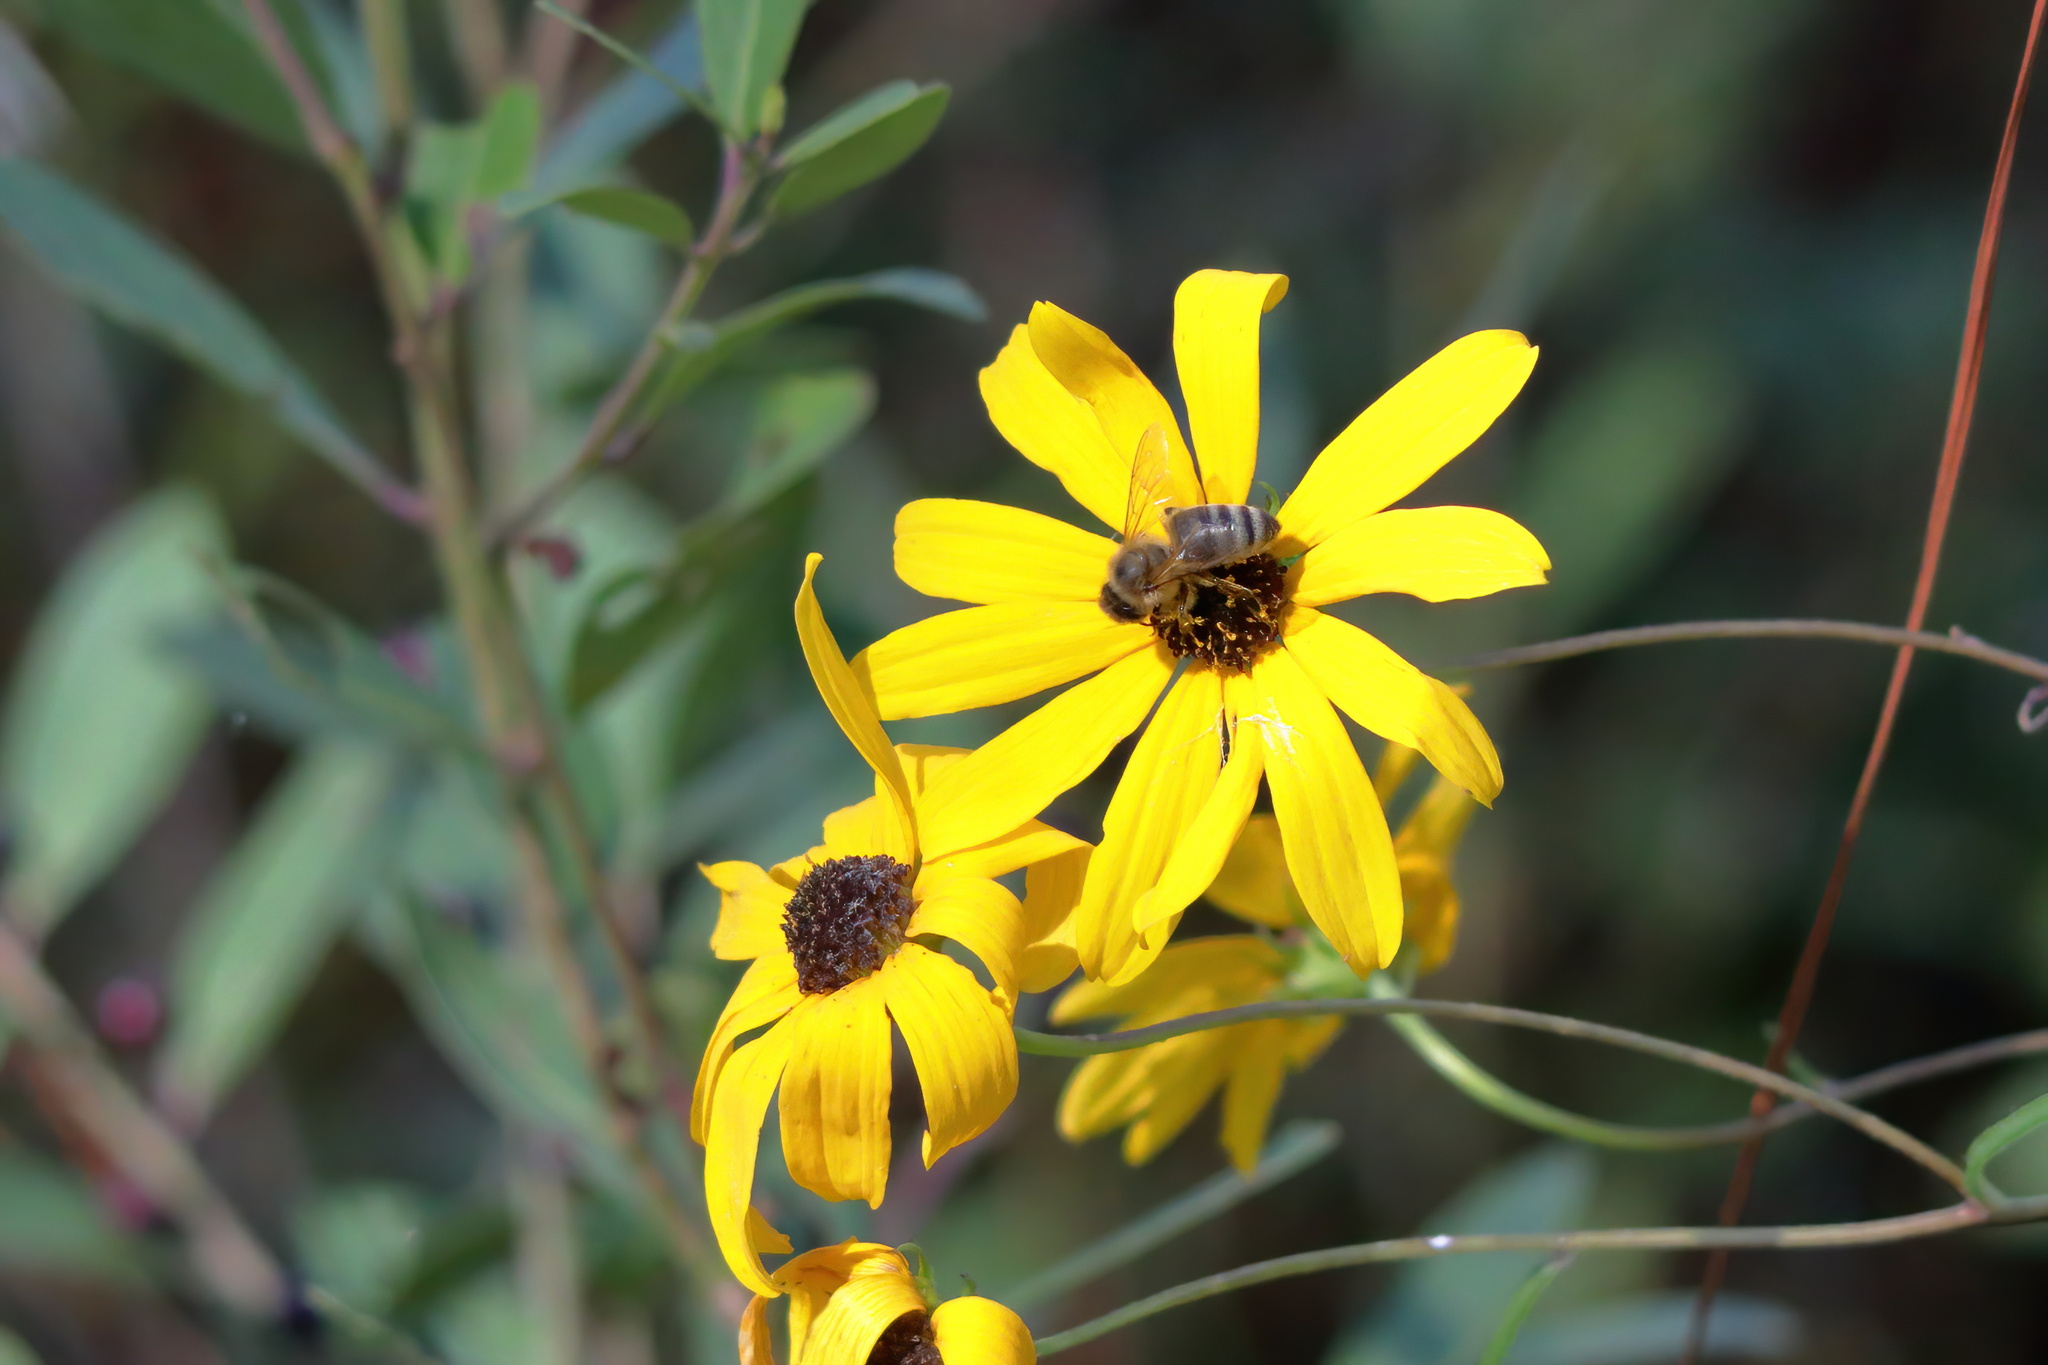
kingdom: Animalia
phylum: Arthropoda
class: Insecta
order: Hymenoptera
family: Apidae
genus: Apis
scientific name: Apis mellifera
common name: Honey bee
